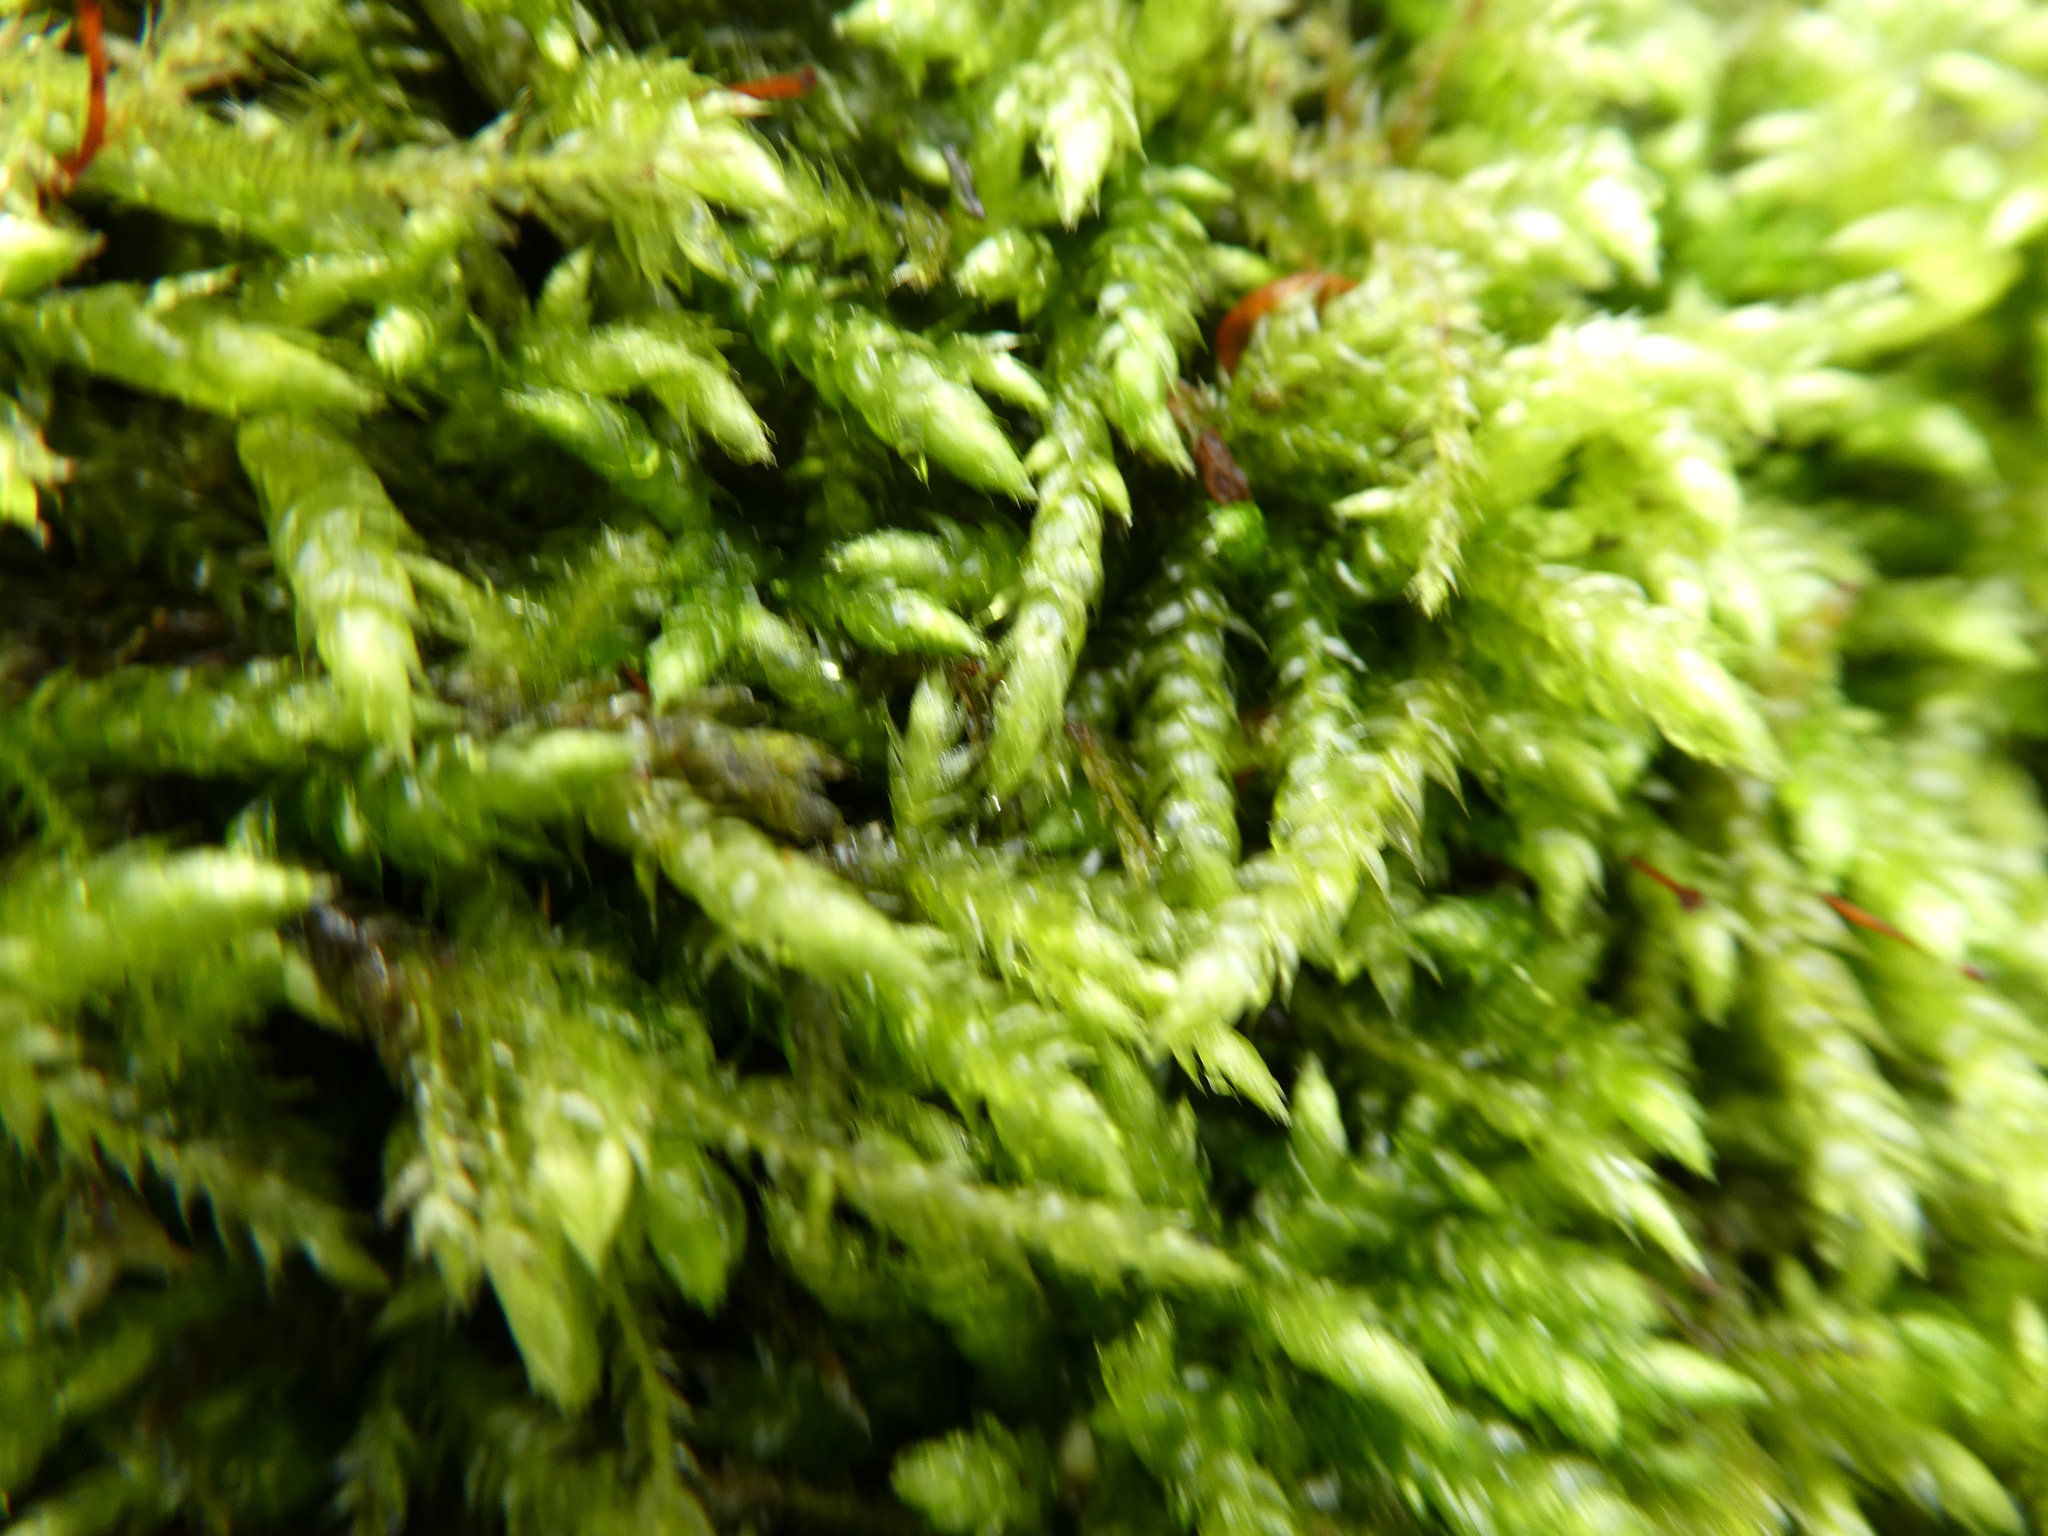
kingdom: Plantae
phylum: Bryophyta
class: Bryopsida
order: Hypnales
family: Brachytheciaceae
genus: Brachythecium
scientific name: Brachythecium rutabulum
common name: Rough-stalked feather-moss
